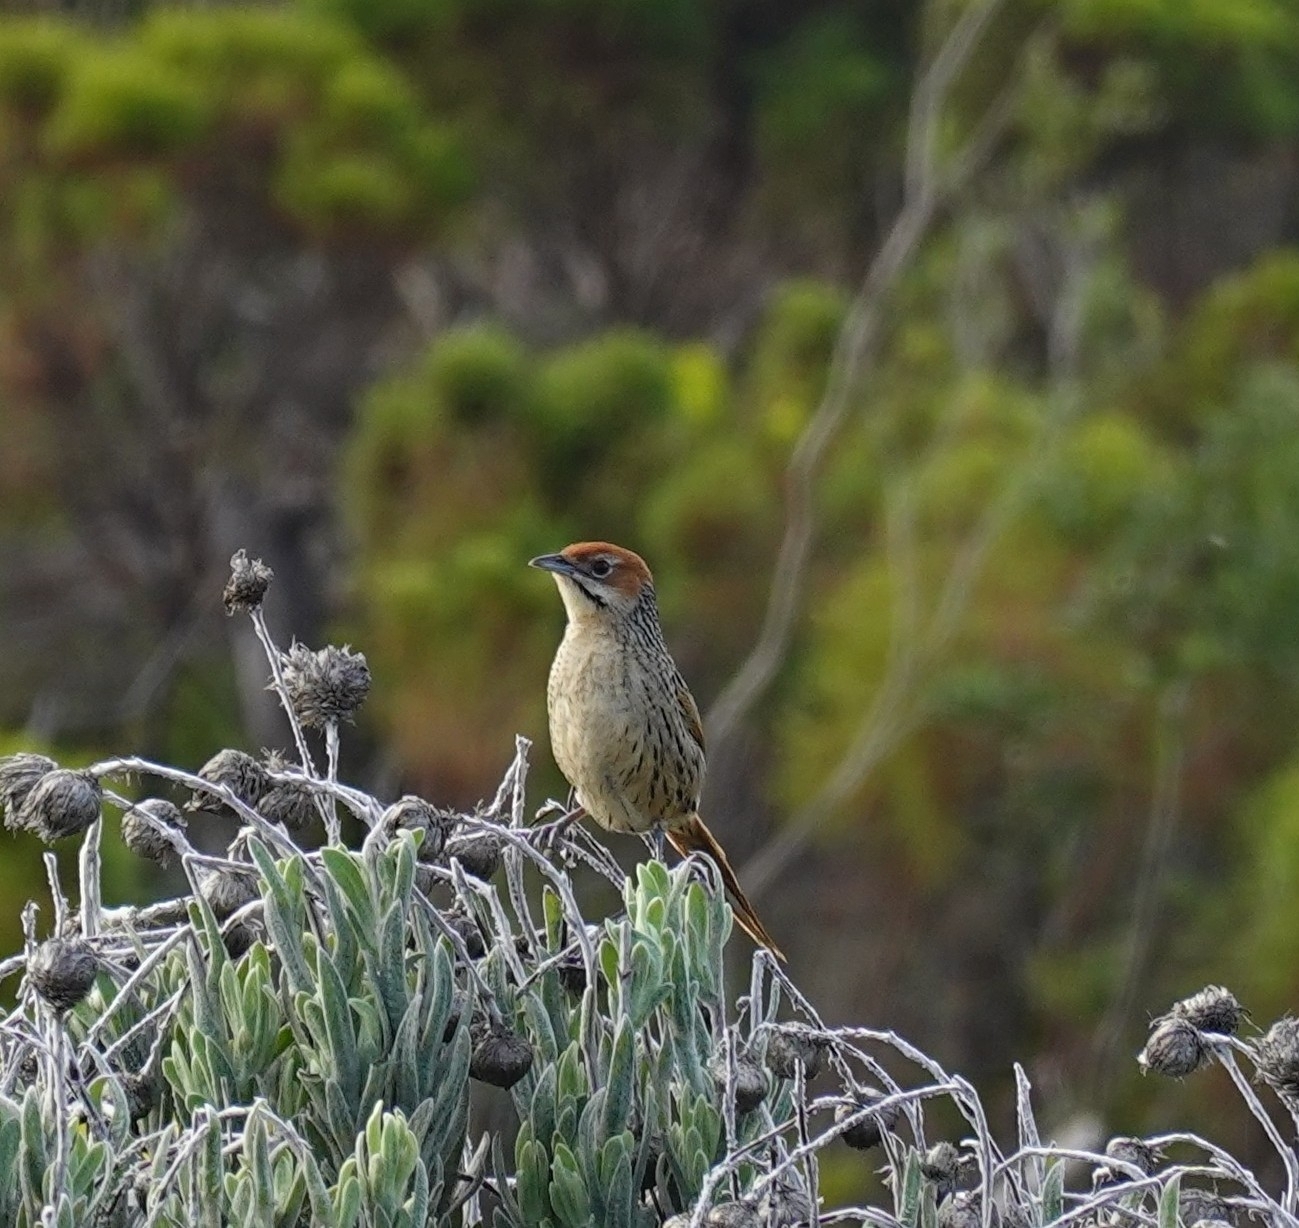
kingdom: Animalia
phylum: Chordata
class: Aves
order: Passeriformes
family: Macrosphenidae
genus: Sphenoeacus
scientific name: Sphenoeacus afer
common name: Cape grassbird
